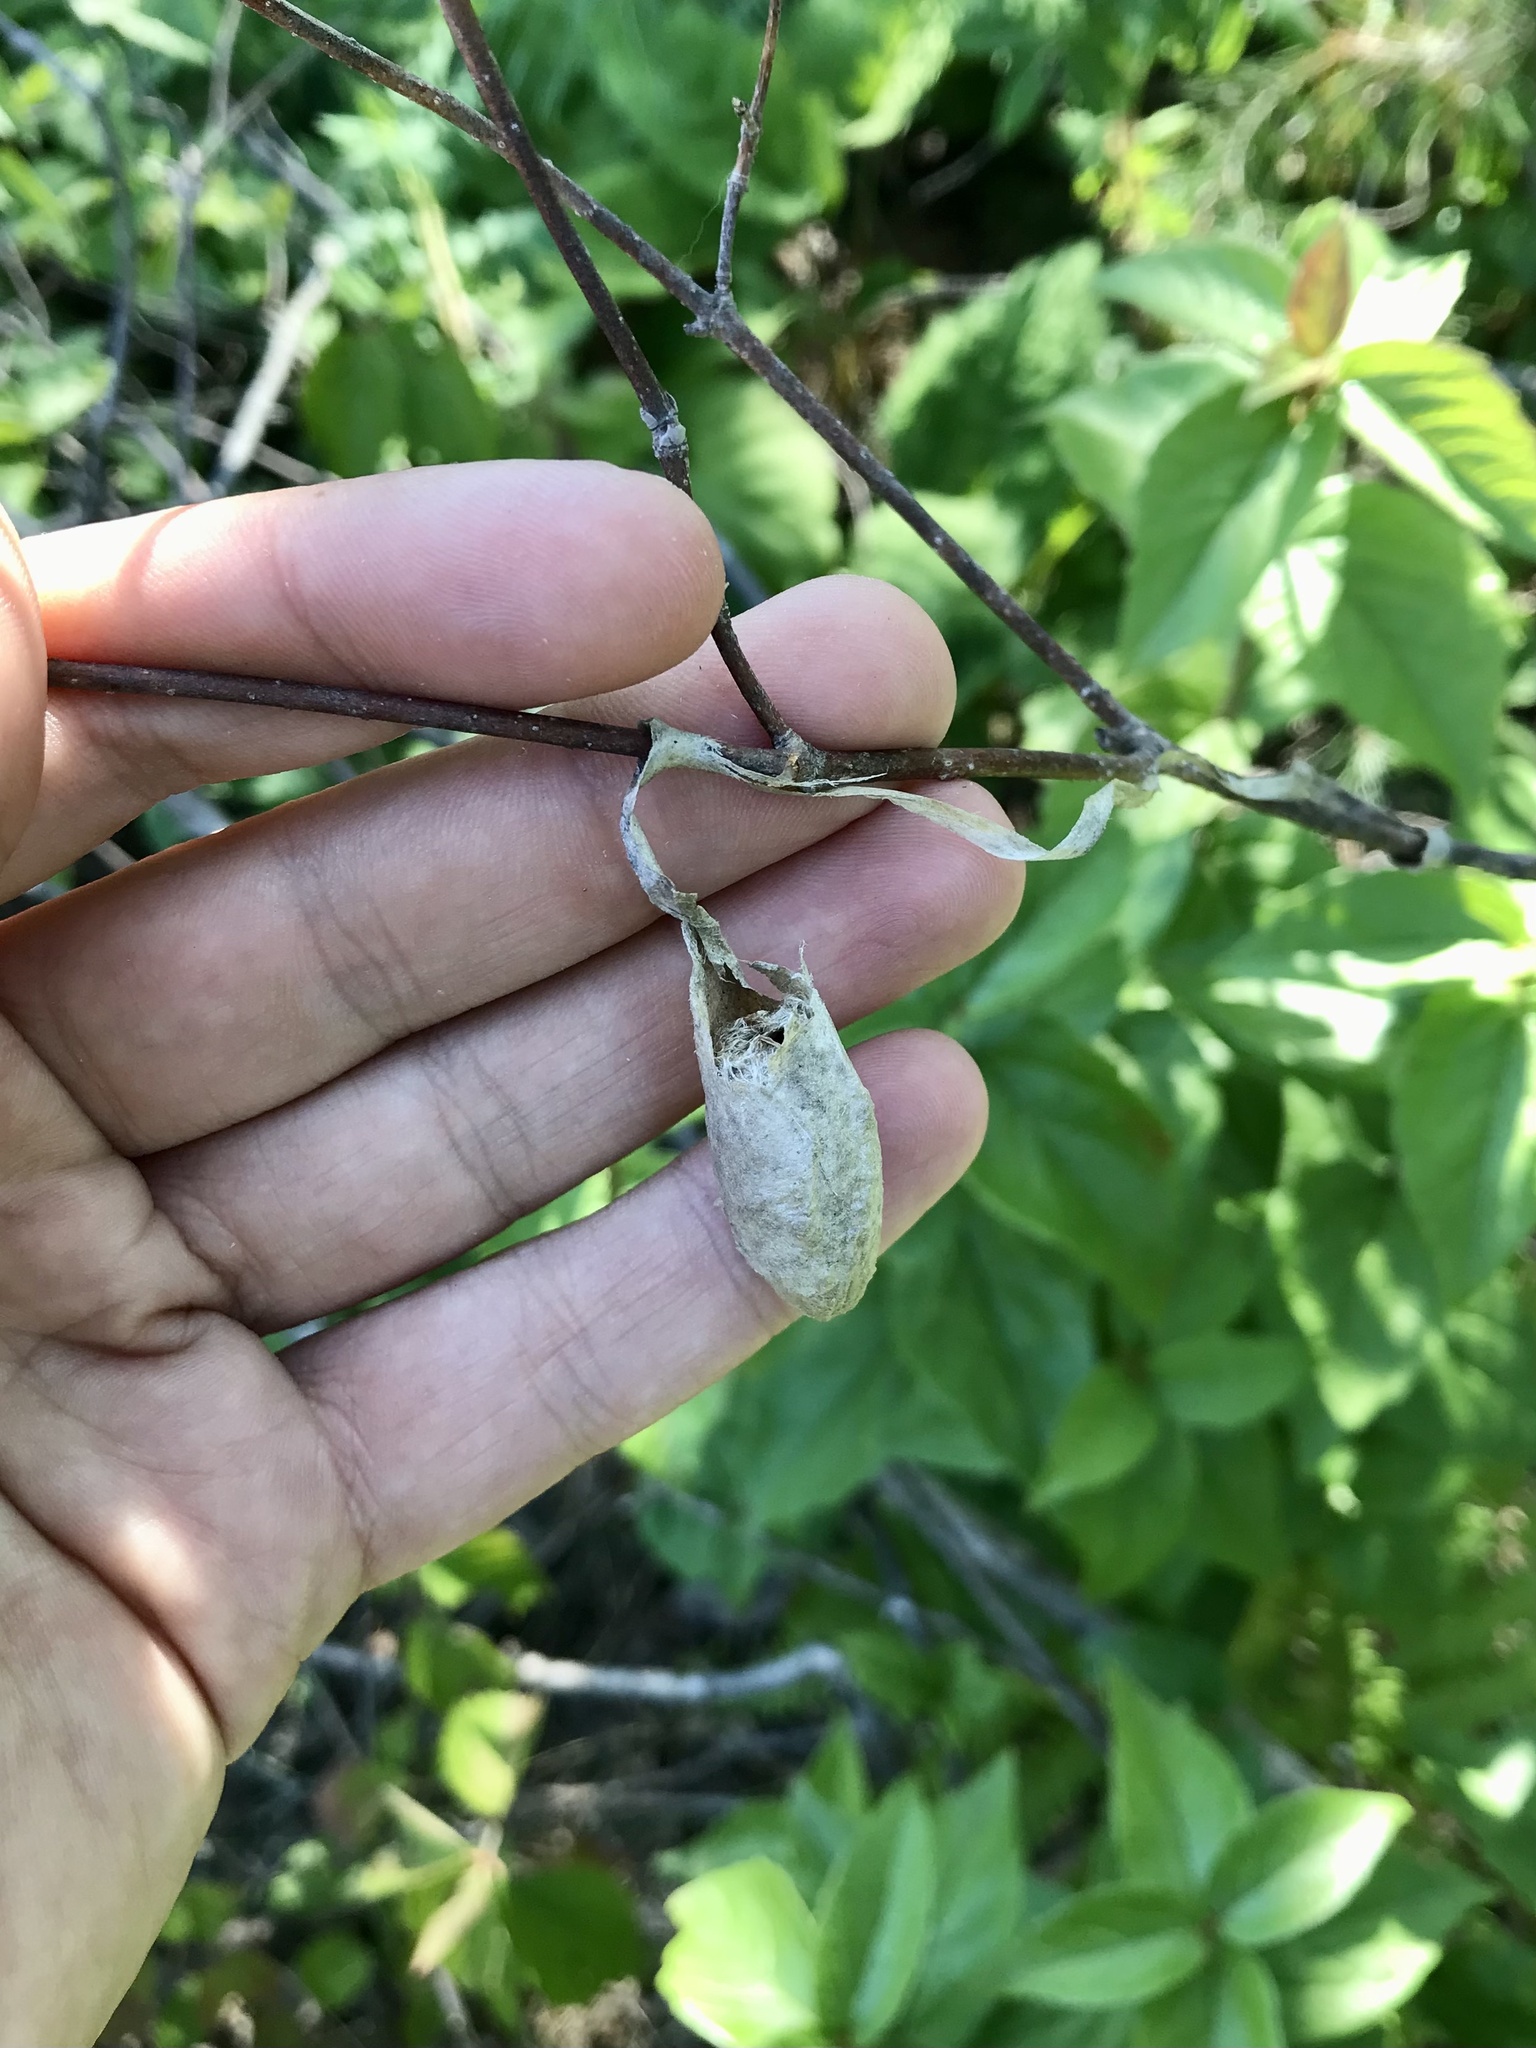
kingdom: Animalia
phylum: Arthropoda
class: Insecta
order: Lepidoptera
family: Saturniidae
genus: Callosamia
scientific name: Callosamia promethea
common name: Promethea silkmoth
